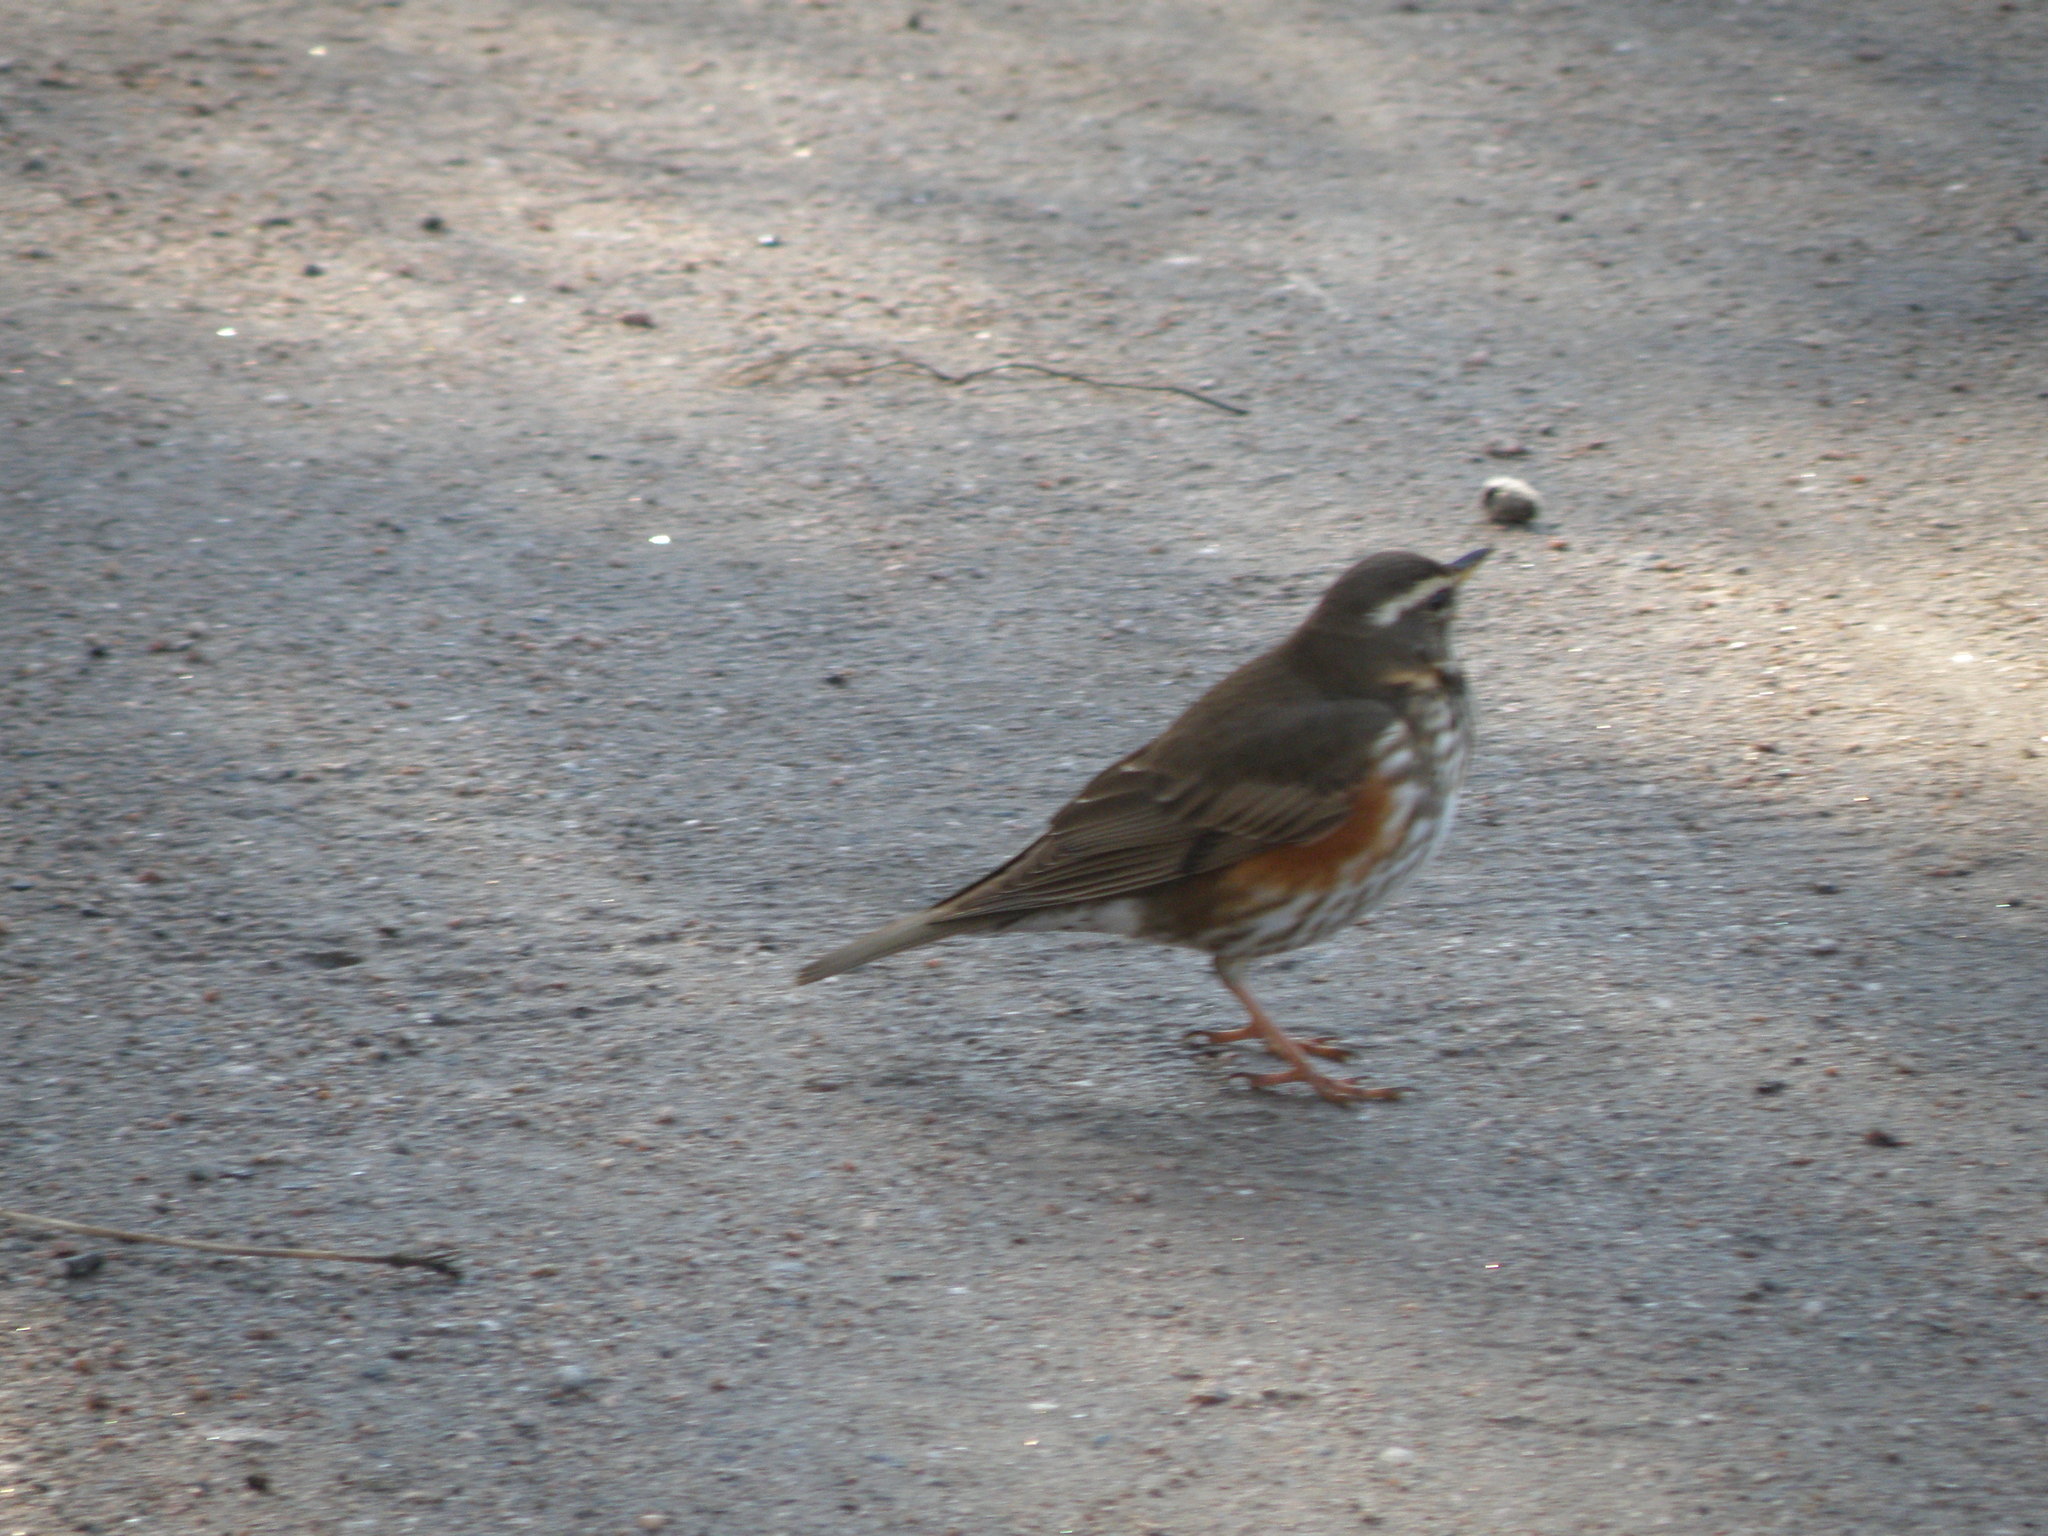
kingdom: Animalia
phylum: Chordata
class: Aves
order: Passeriformes
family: Turdidae
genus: Turdus
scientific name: Turdus iliacus
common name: Redwing
